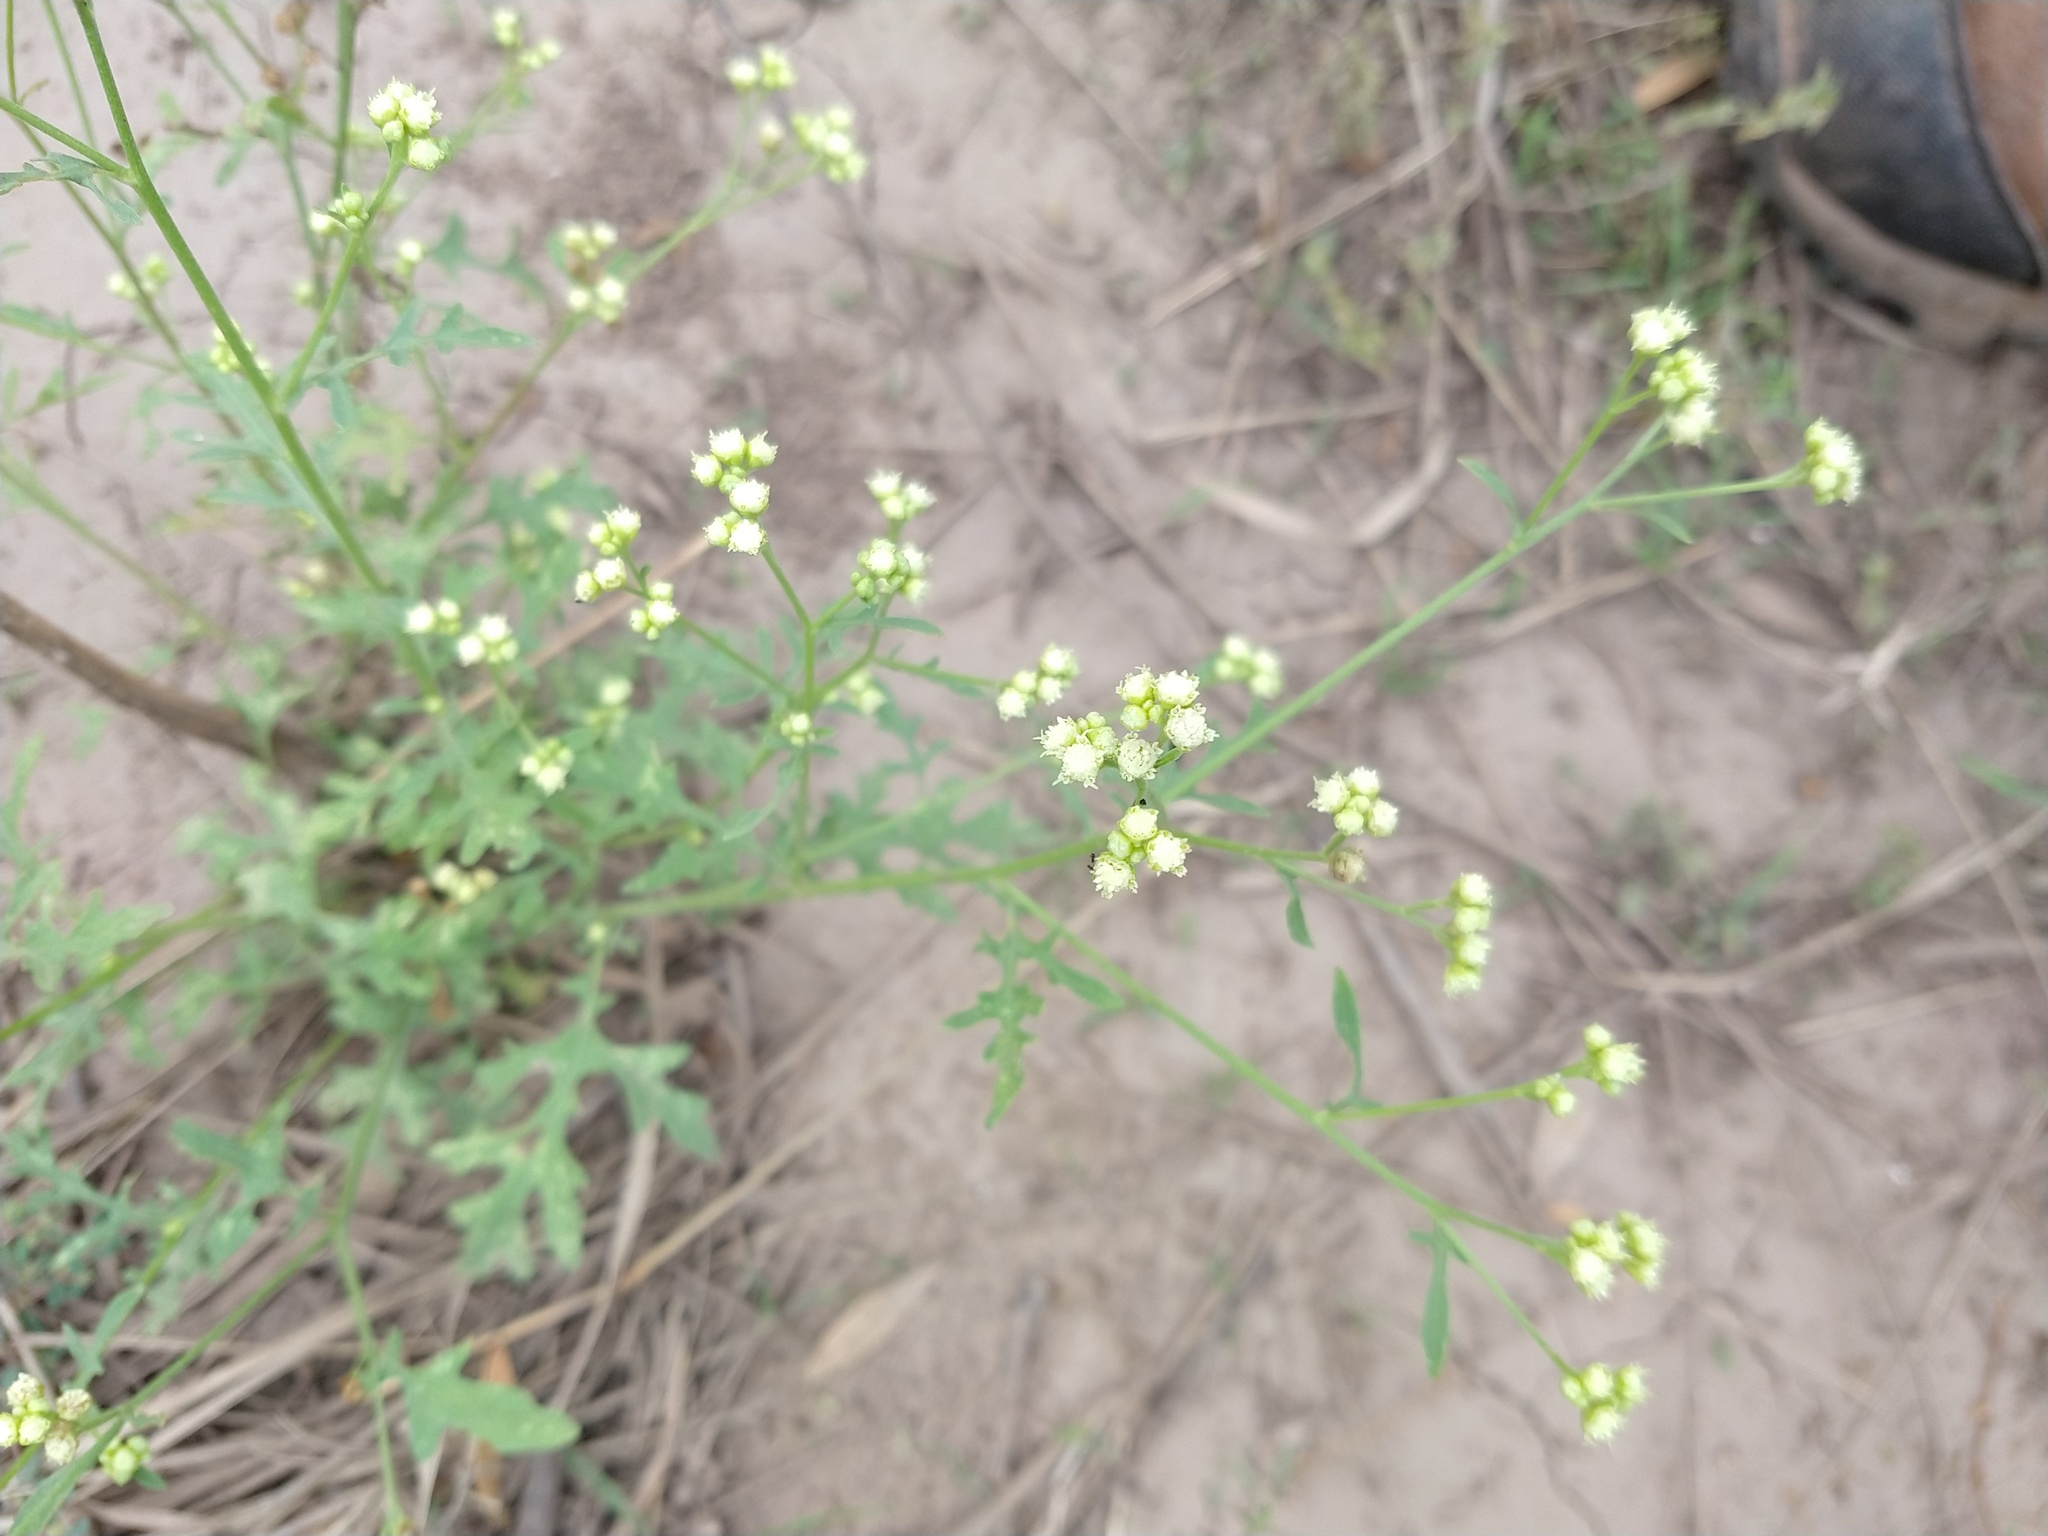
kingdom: Plantae
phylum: Tracheophyta
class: Magnoliopsida
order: Asterales
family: Asteraceae
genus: Parthenium
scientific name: Parthenium hysterophorus
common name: Santa maria feverfew
